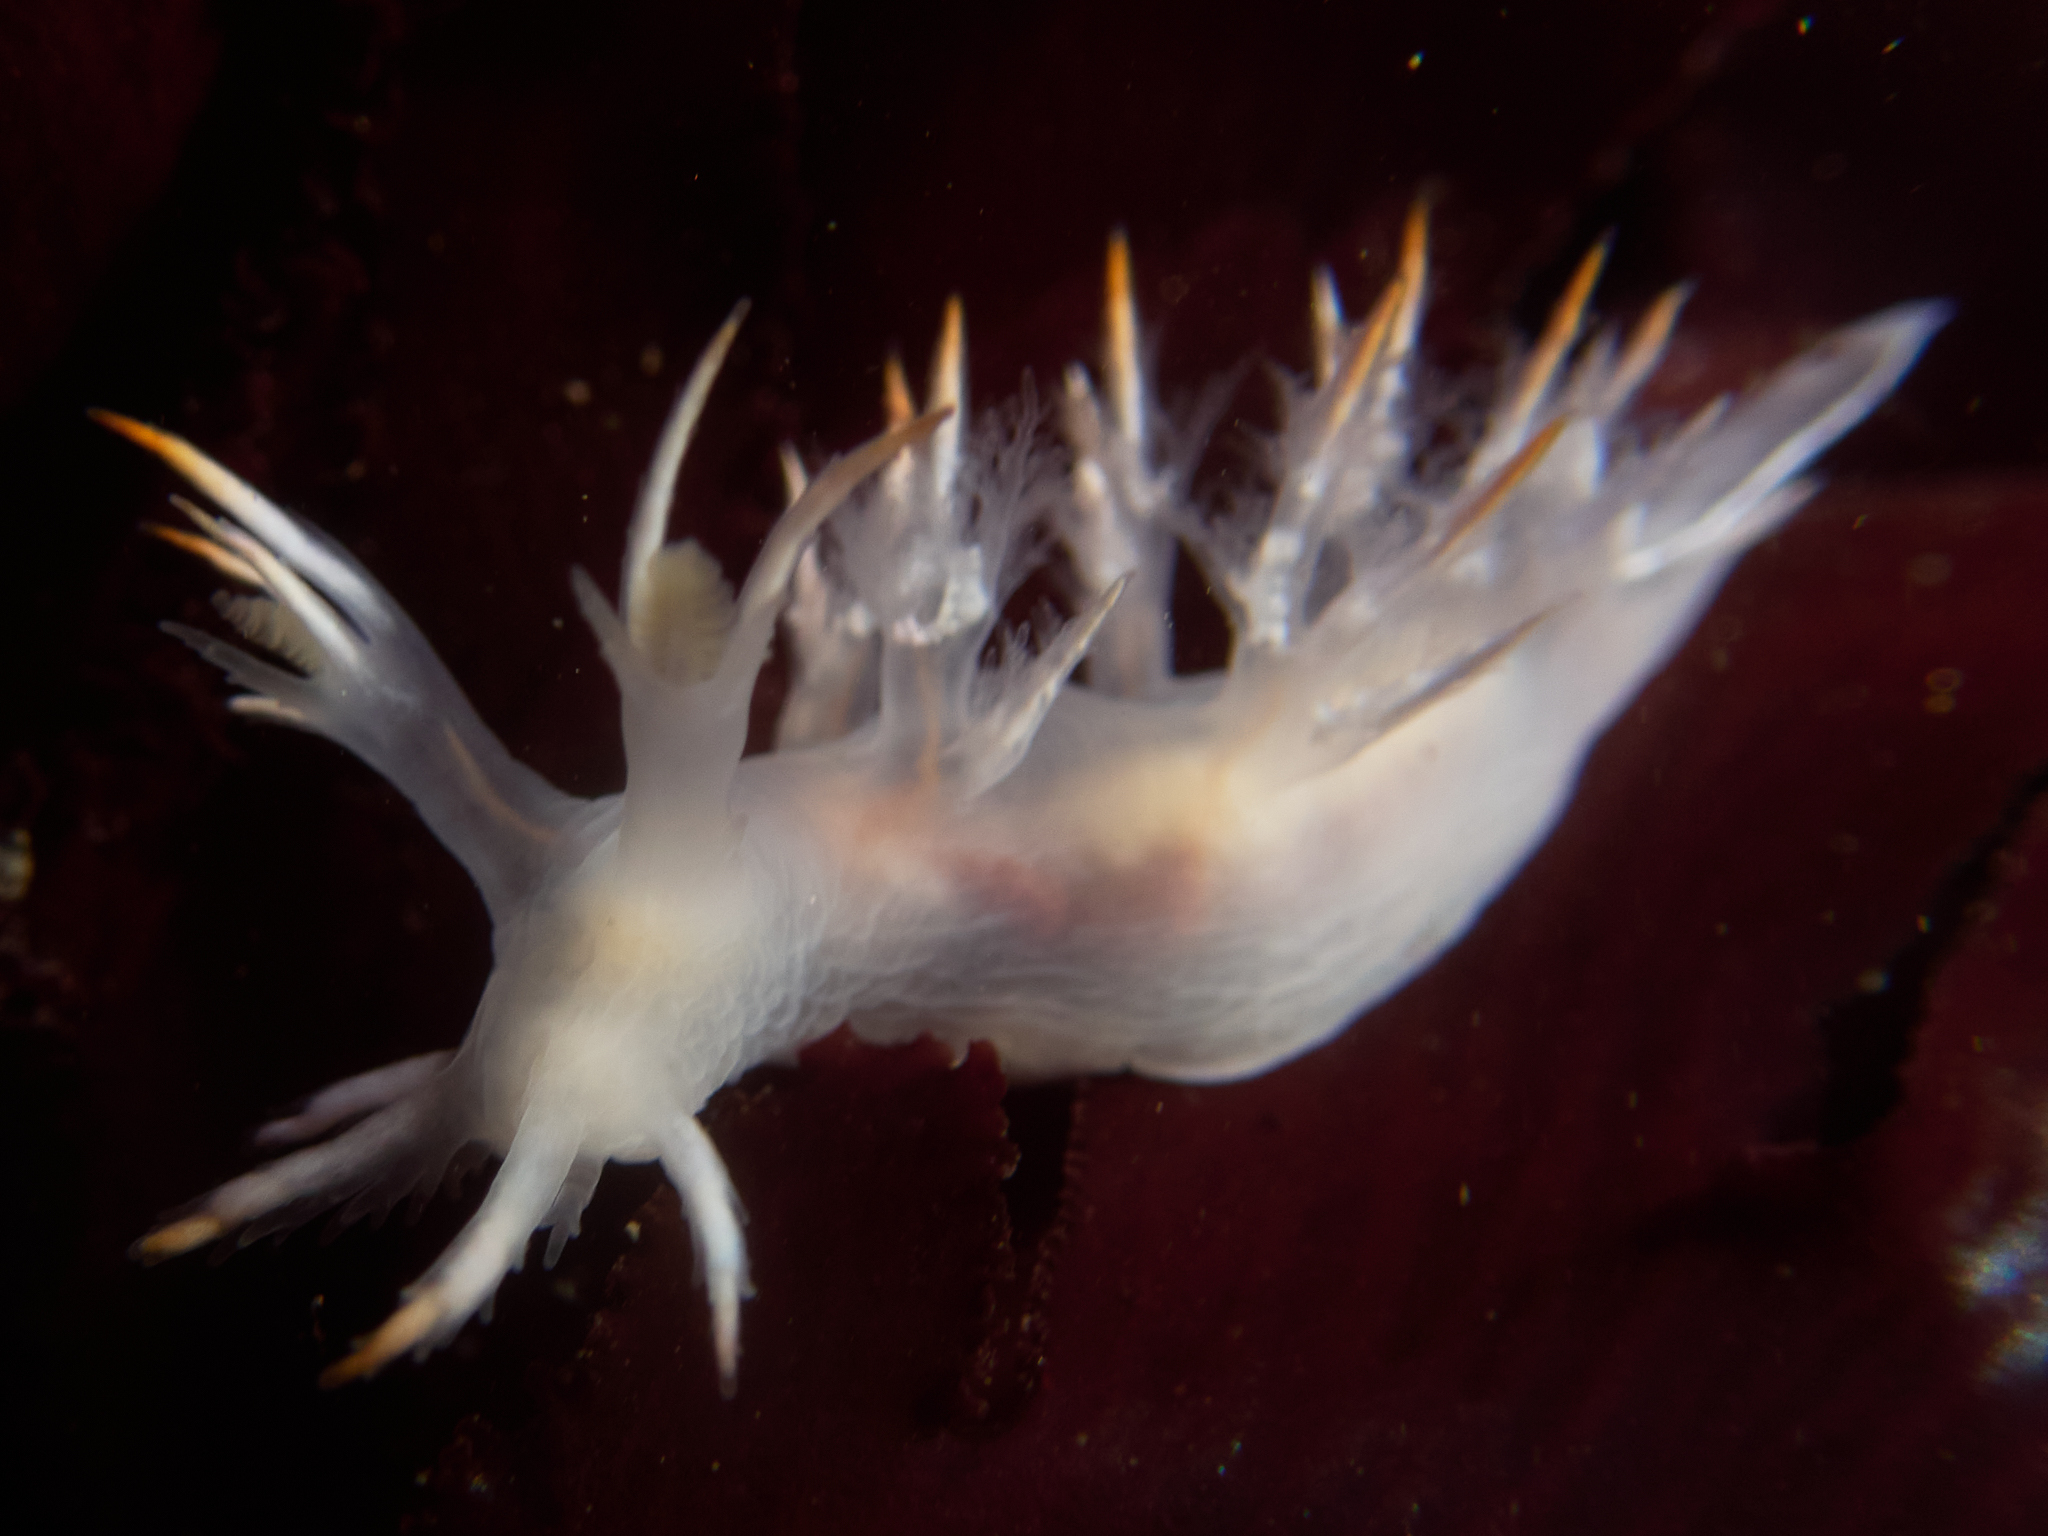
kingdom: Animalia
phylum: Mollusca
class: Gastropoda
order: Nudibranchia
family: Dendronotidae
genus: Dendronotus
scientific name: Dendronotus albus
